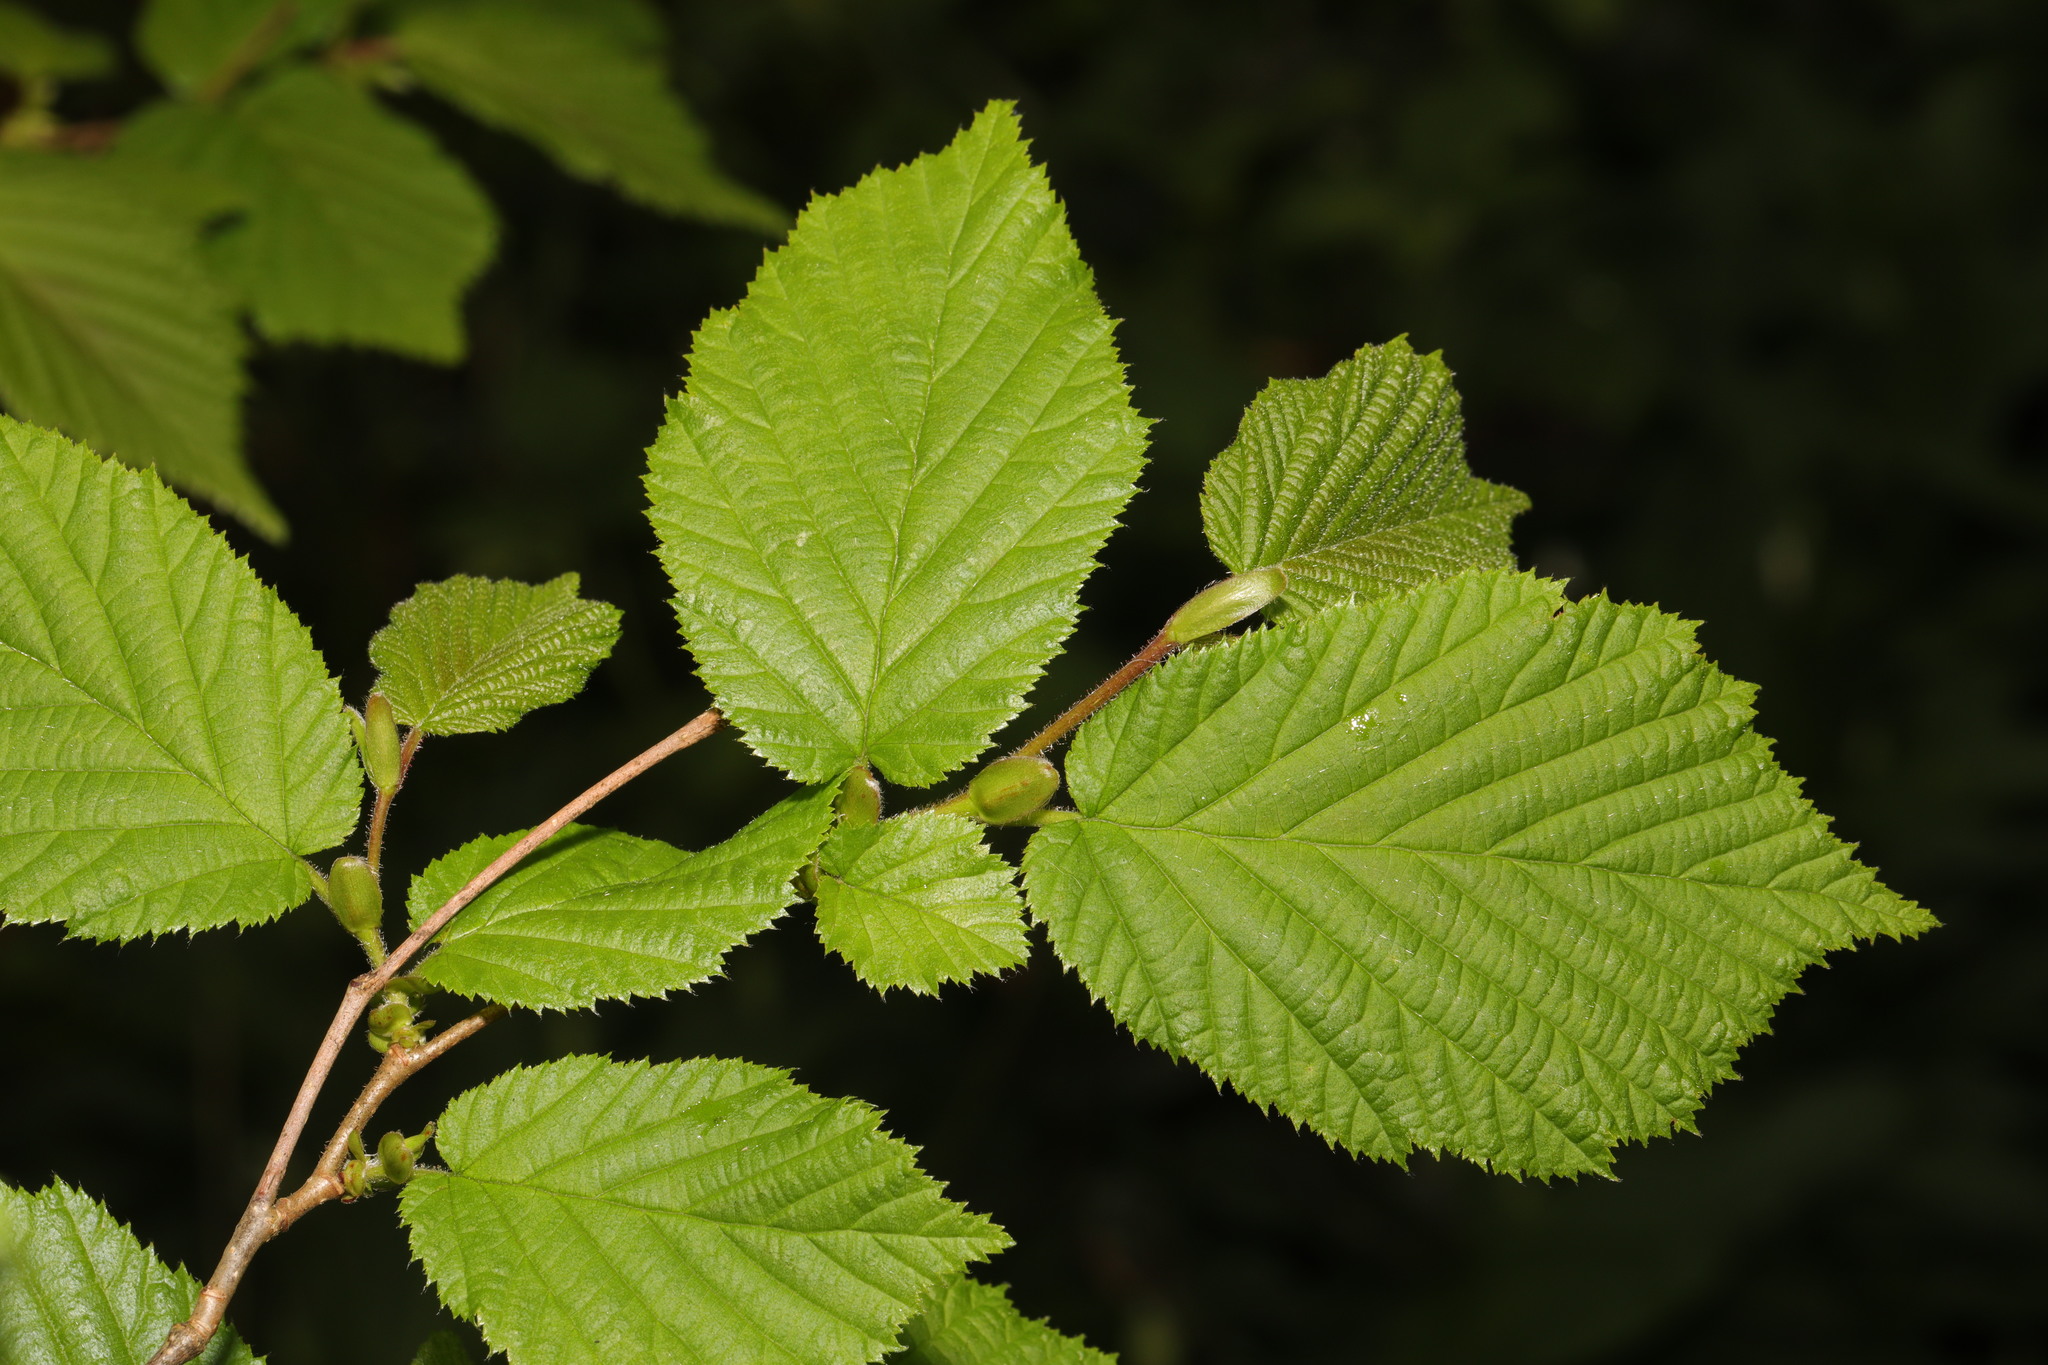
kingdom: Plantae
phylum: Tracheophyta
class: Magnoliopsida
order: Fagales
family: Betulaceae
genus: Corylus
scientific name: Corylus avellana
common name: European hazel
